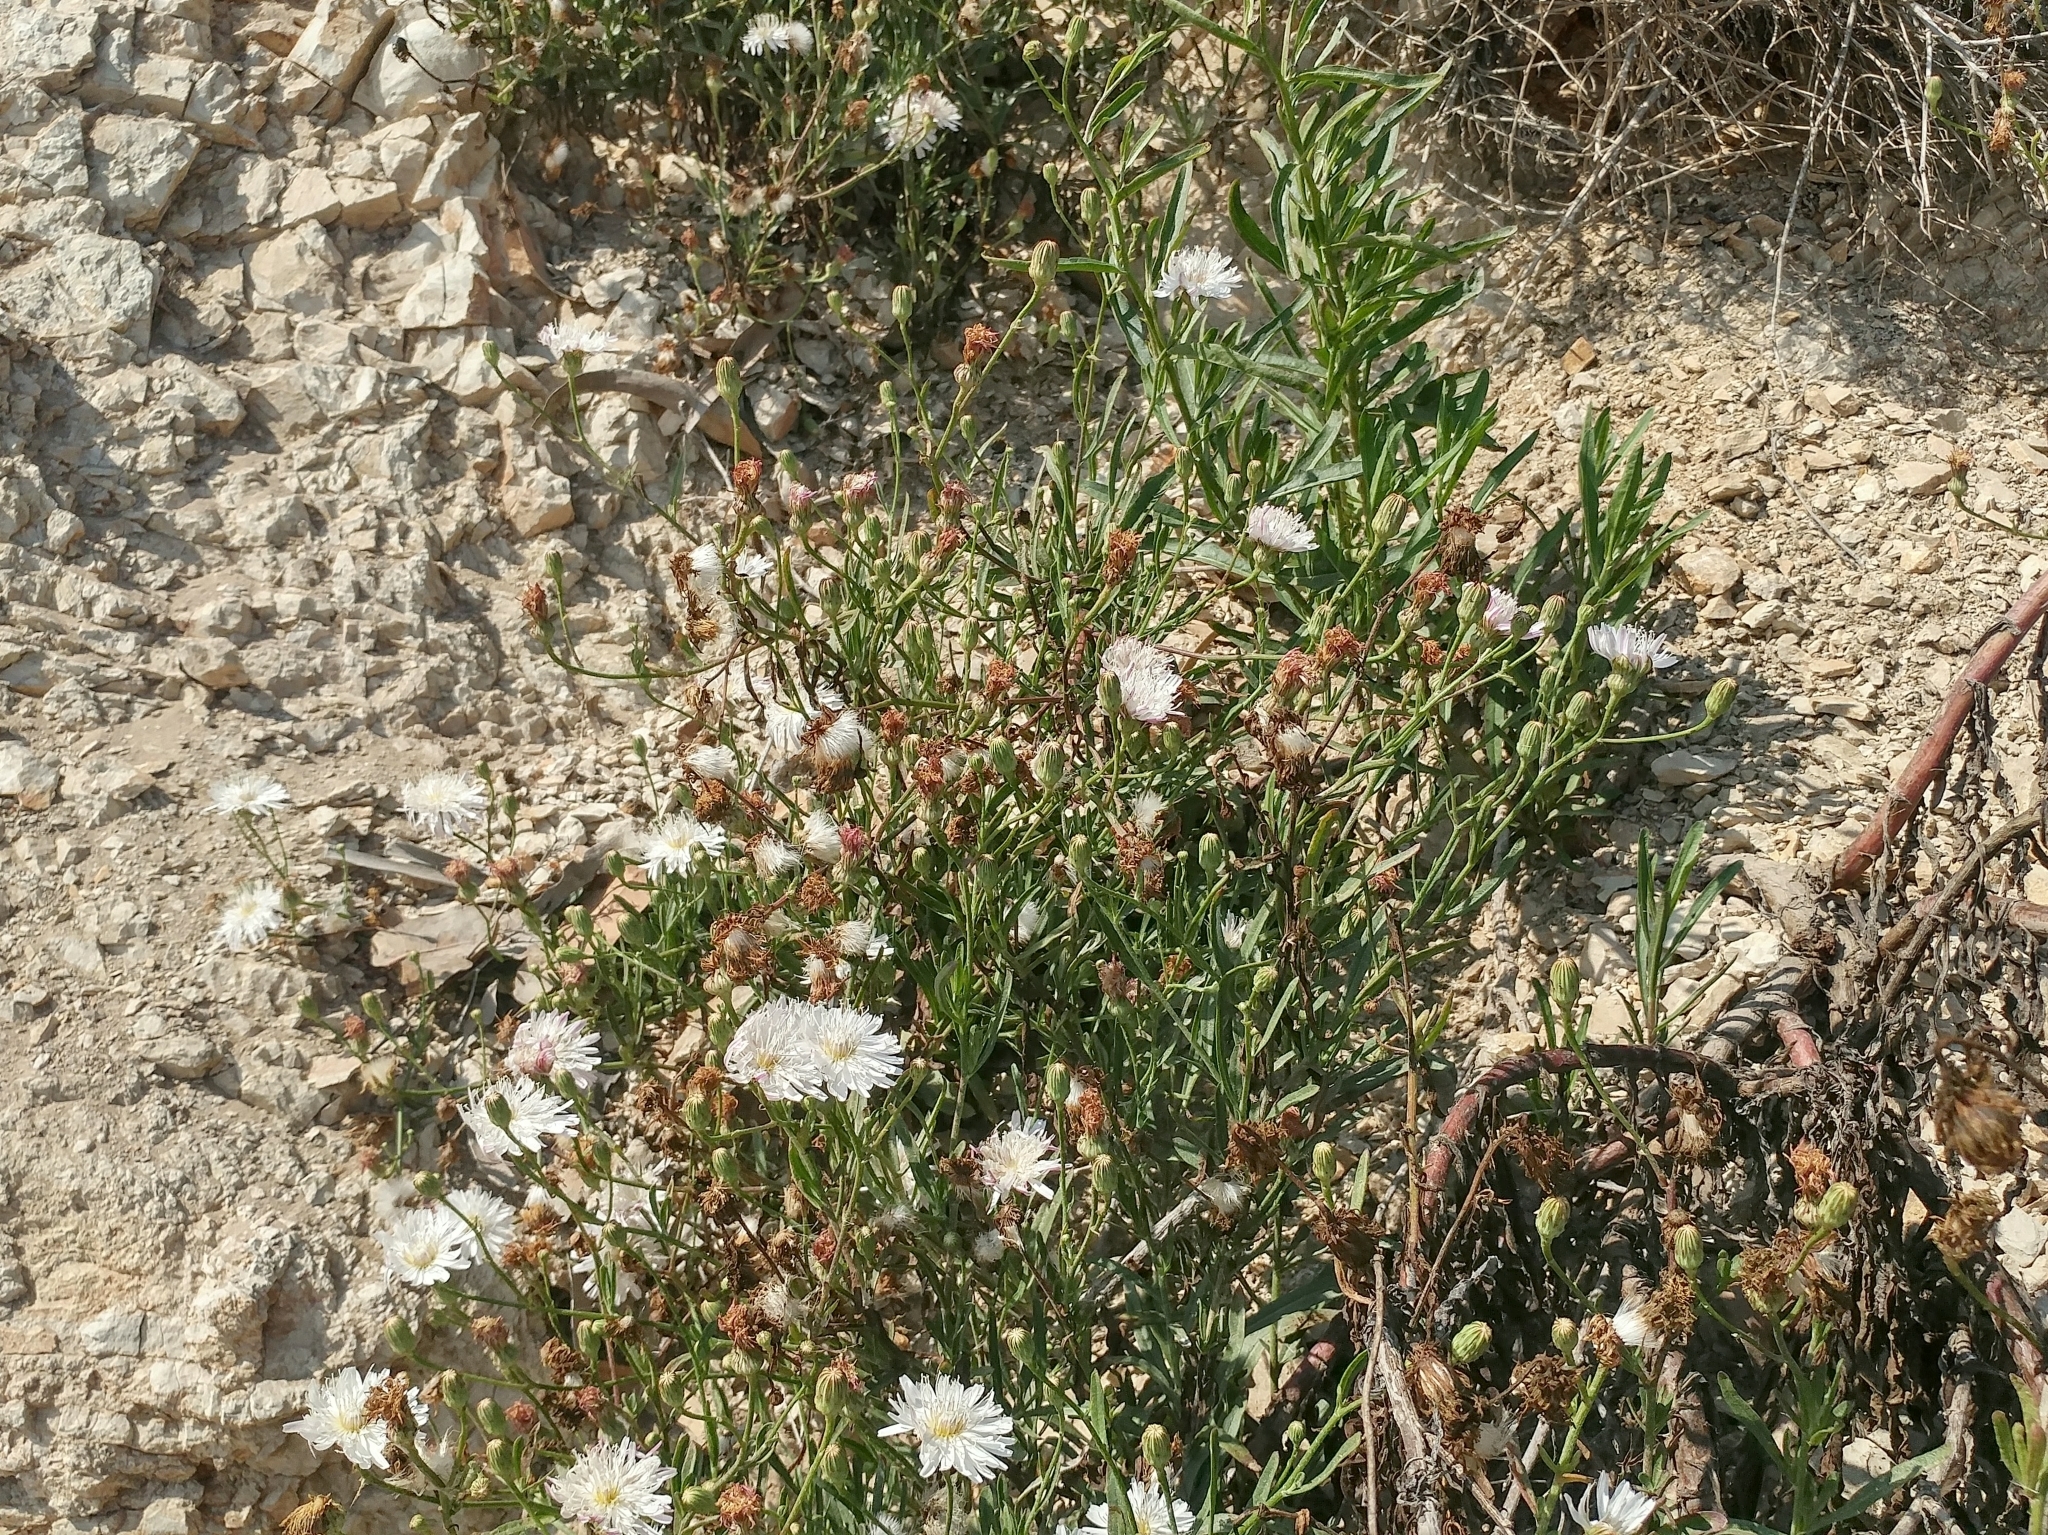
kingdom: Plantae
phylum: Tracheophyta
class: Magnoliopsida
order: Asterales
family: Asteraceae
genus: Malacothrix
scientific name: Malacothrix saxatilis
